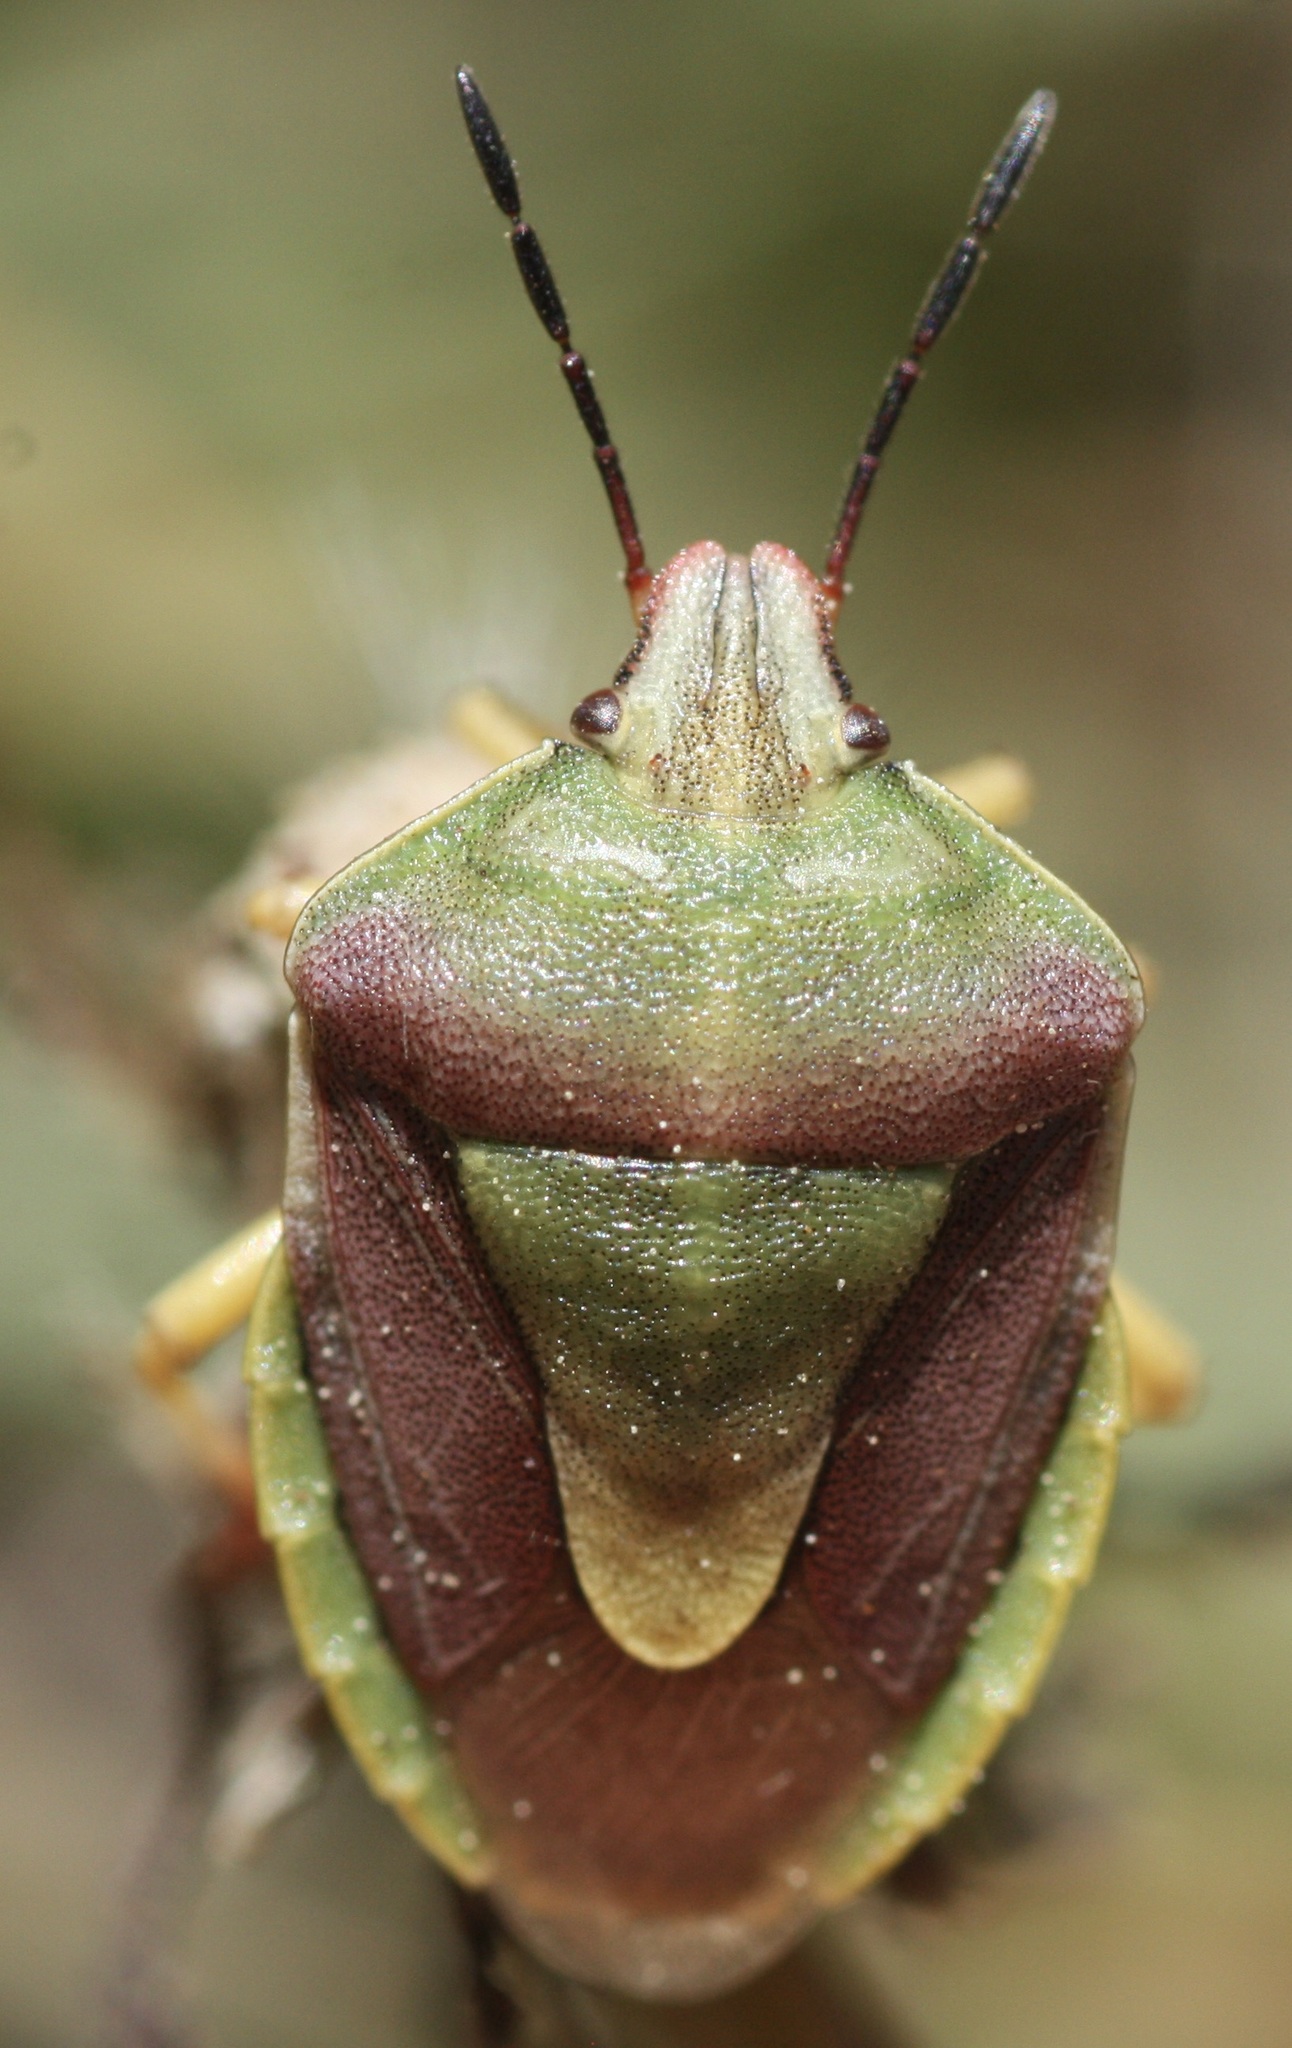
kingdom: Animalia
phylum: Arthropoda
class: Insecta
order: Hemiptera
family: Pentatomidae
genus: Antheminia
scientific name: Antheminia
